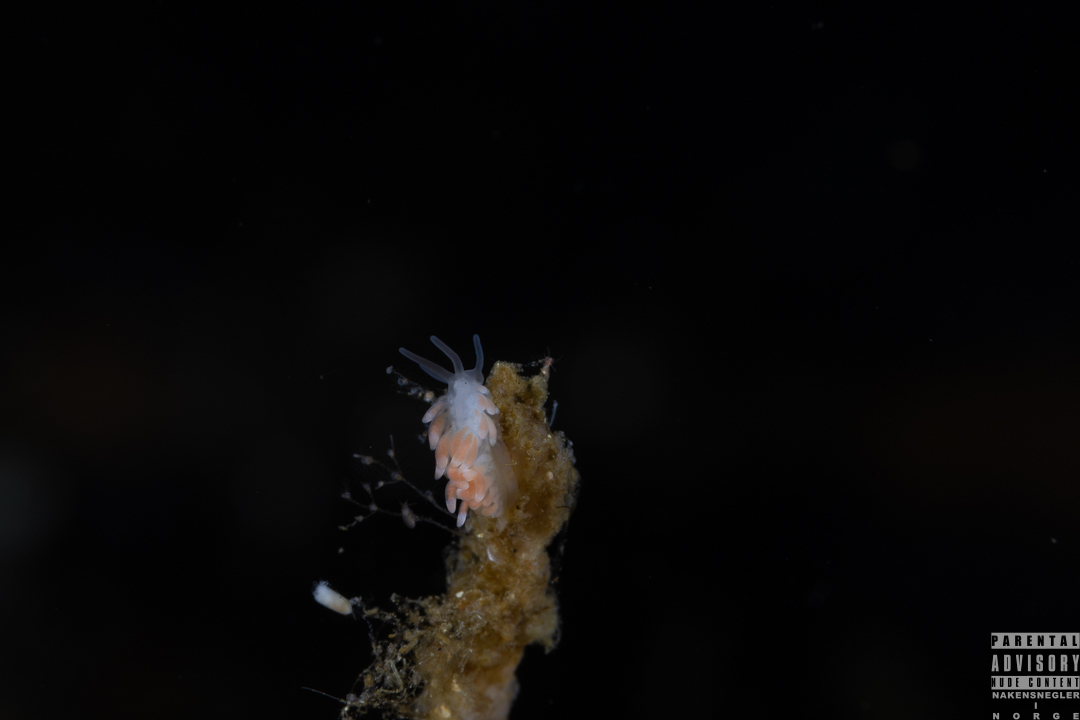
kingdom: Animalia
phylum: Mollusca
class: Gastropoda
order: Nudibranchia
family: Trinchesiidae
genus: Catriona
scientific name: Catriona aurantia
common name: Corange-tip cuthona
